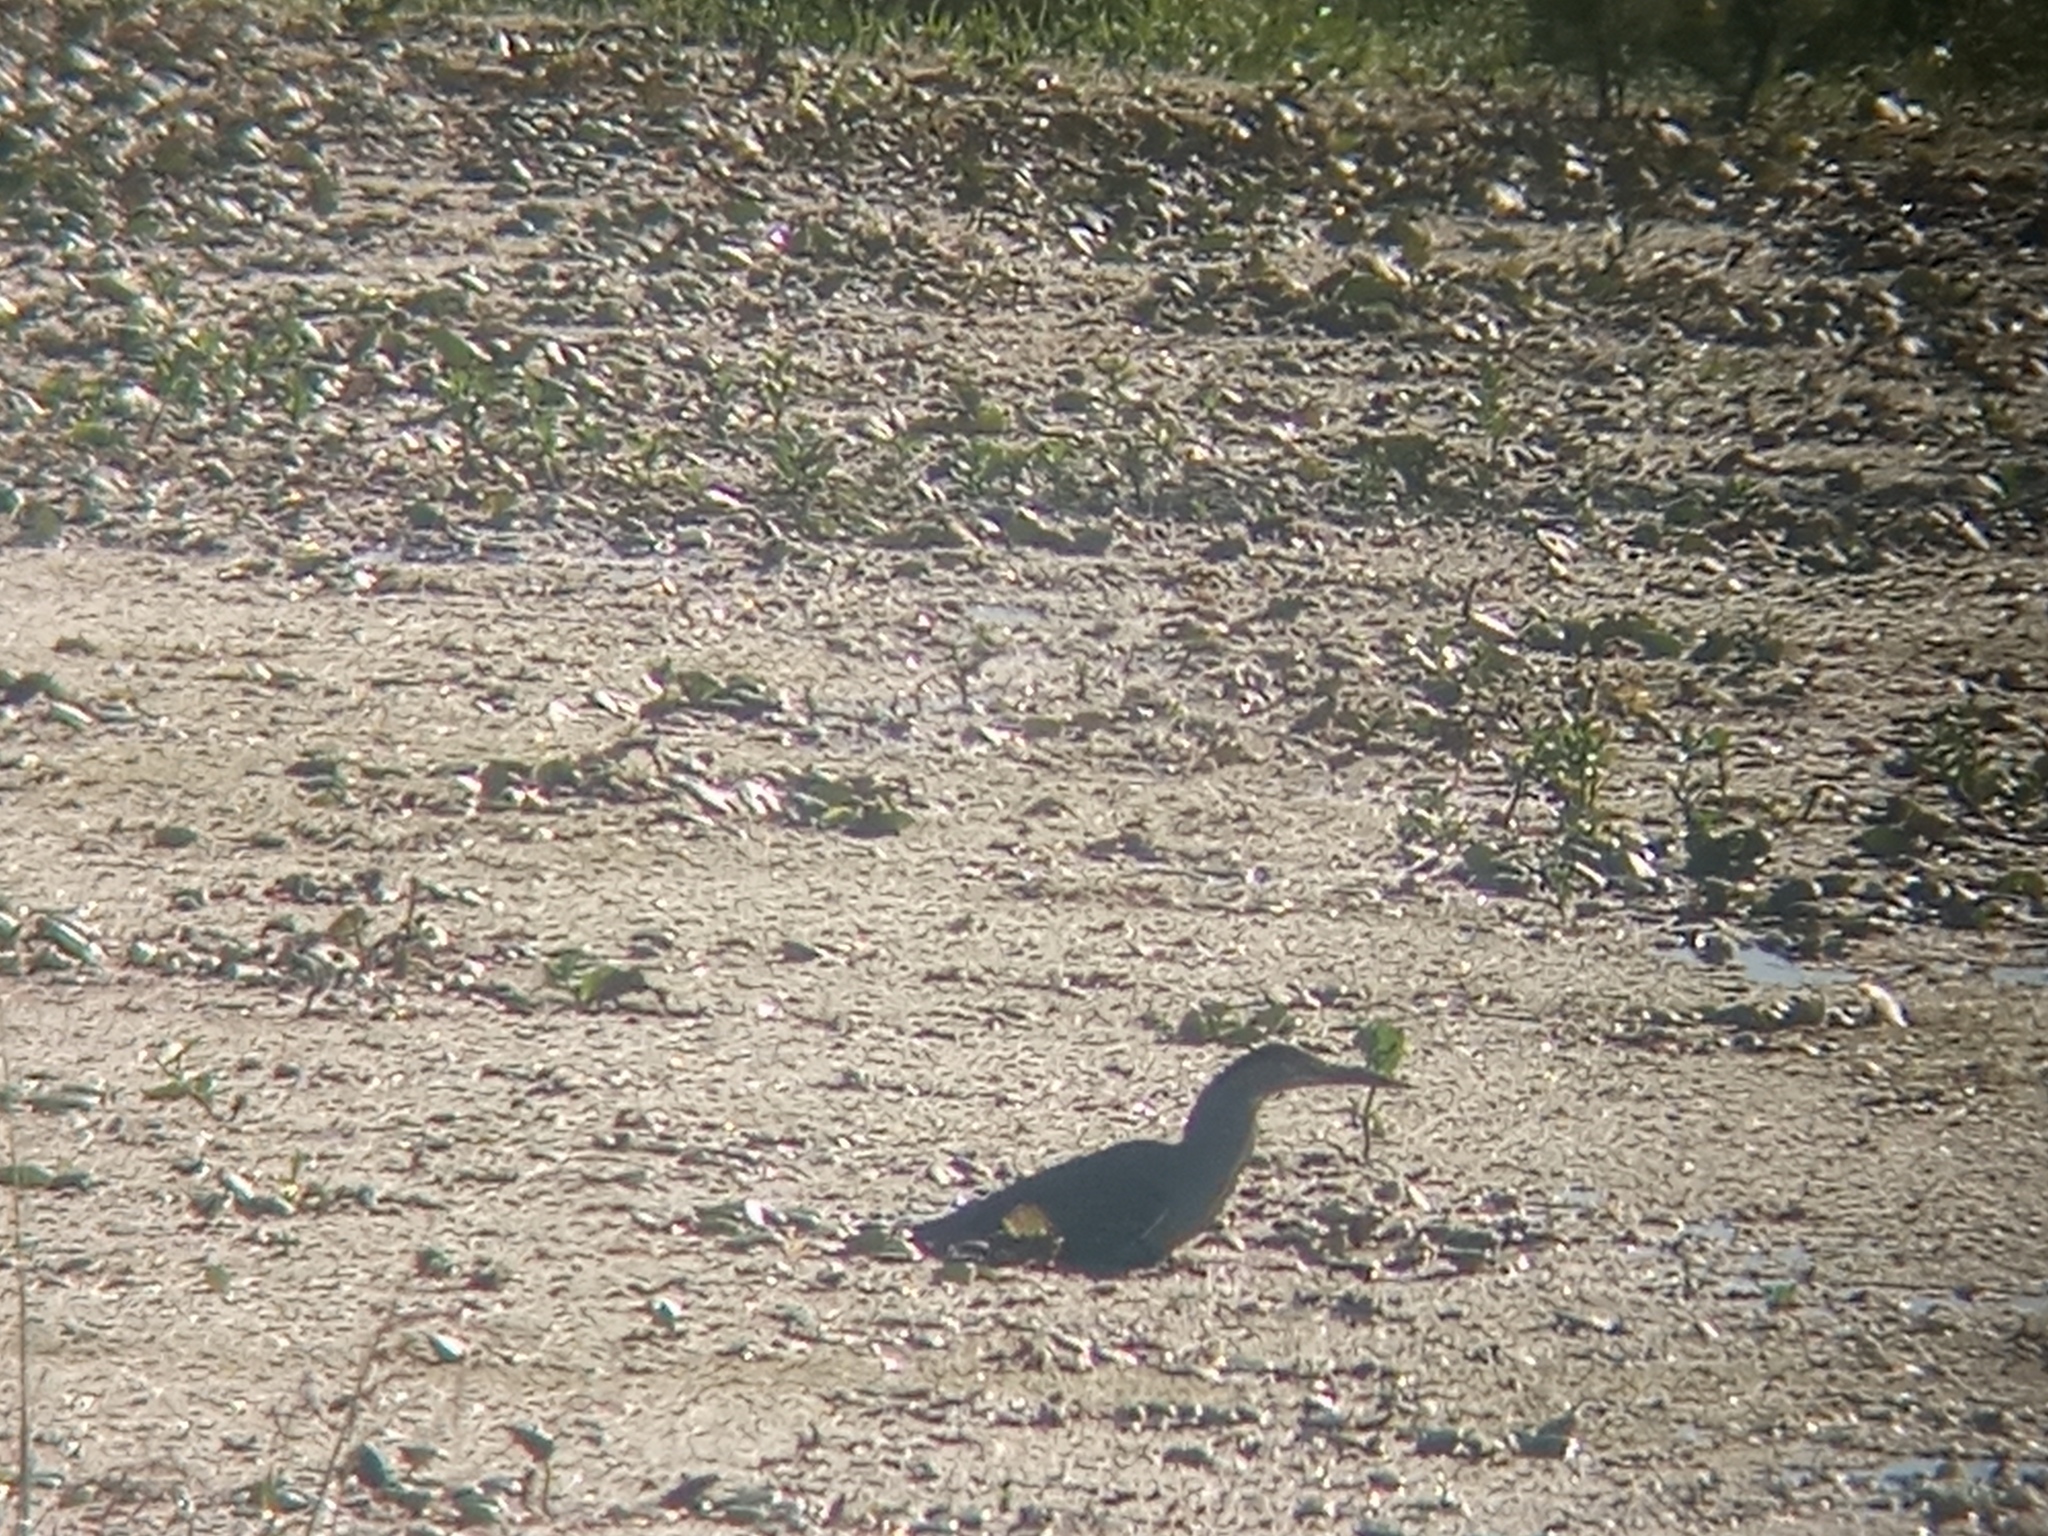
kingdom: Animalia
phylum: Chordata
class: Aves
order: Pelecaniformes
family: Ardeidae
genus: Butorides
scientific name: Butorides striata
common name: Striated heron
